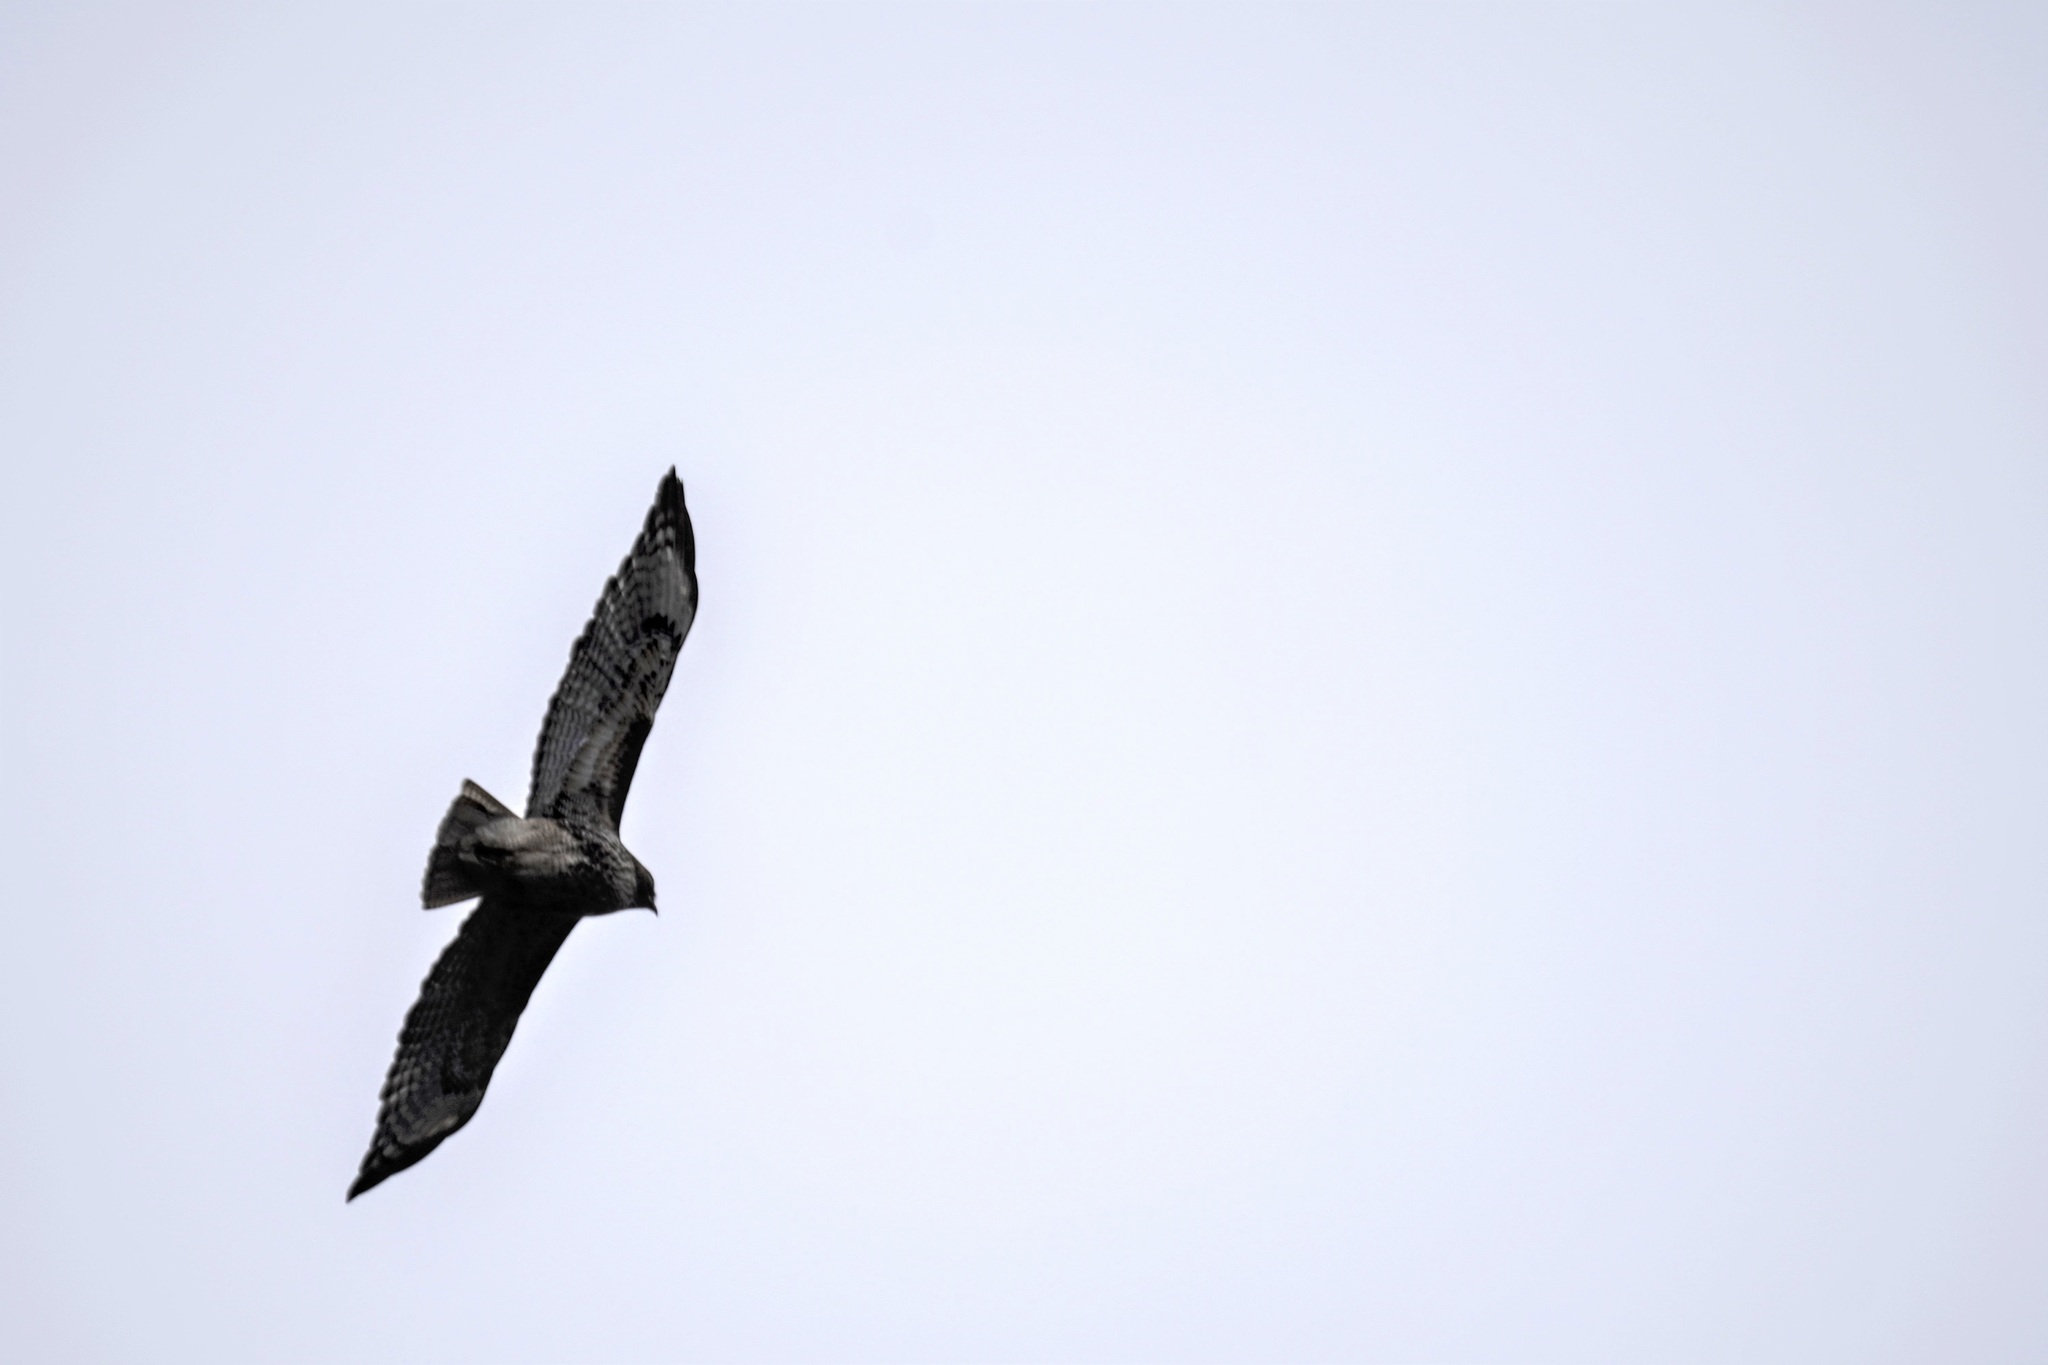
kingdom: Animalia
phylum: Chordata
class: Aves
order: Accipitriformes
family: Accipitridae
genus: Buteo
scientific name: Buteo jamaicensis
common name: Red-tailed hawk
